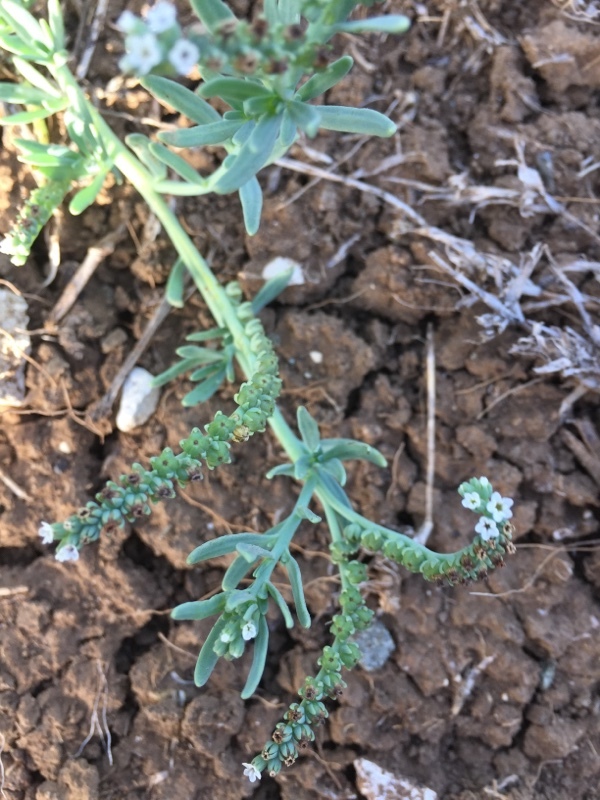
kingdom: Plantae
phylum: Tracheophyta
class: Magnoliopsida
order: Boraginales
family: Heliotropiaceae
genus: Heliotropium
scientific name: Heliotropium curassavicum
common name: Seaside heliotrope
